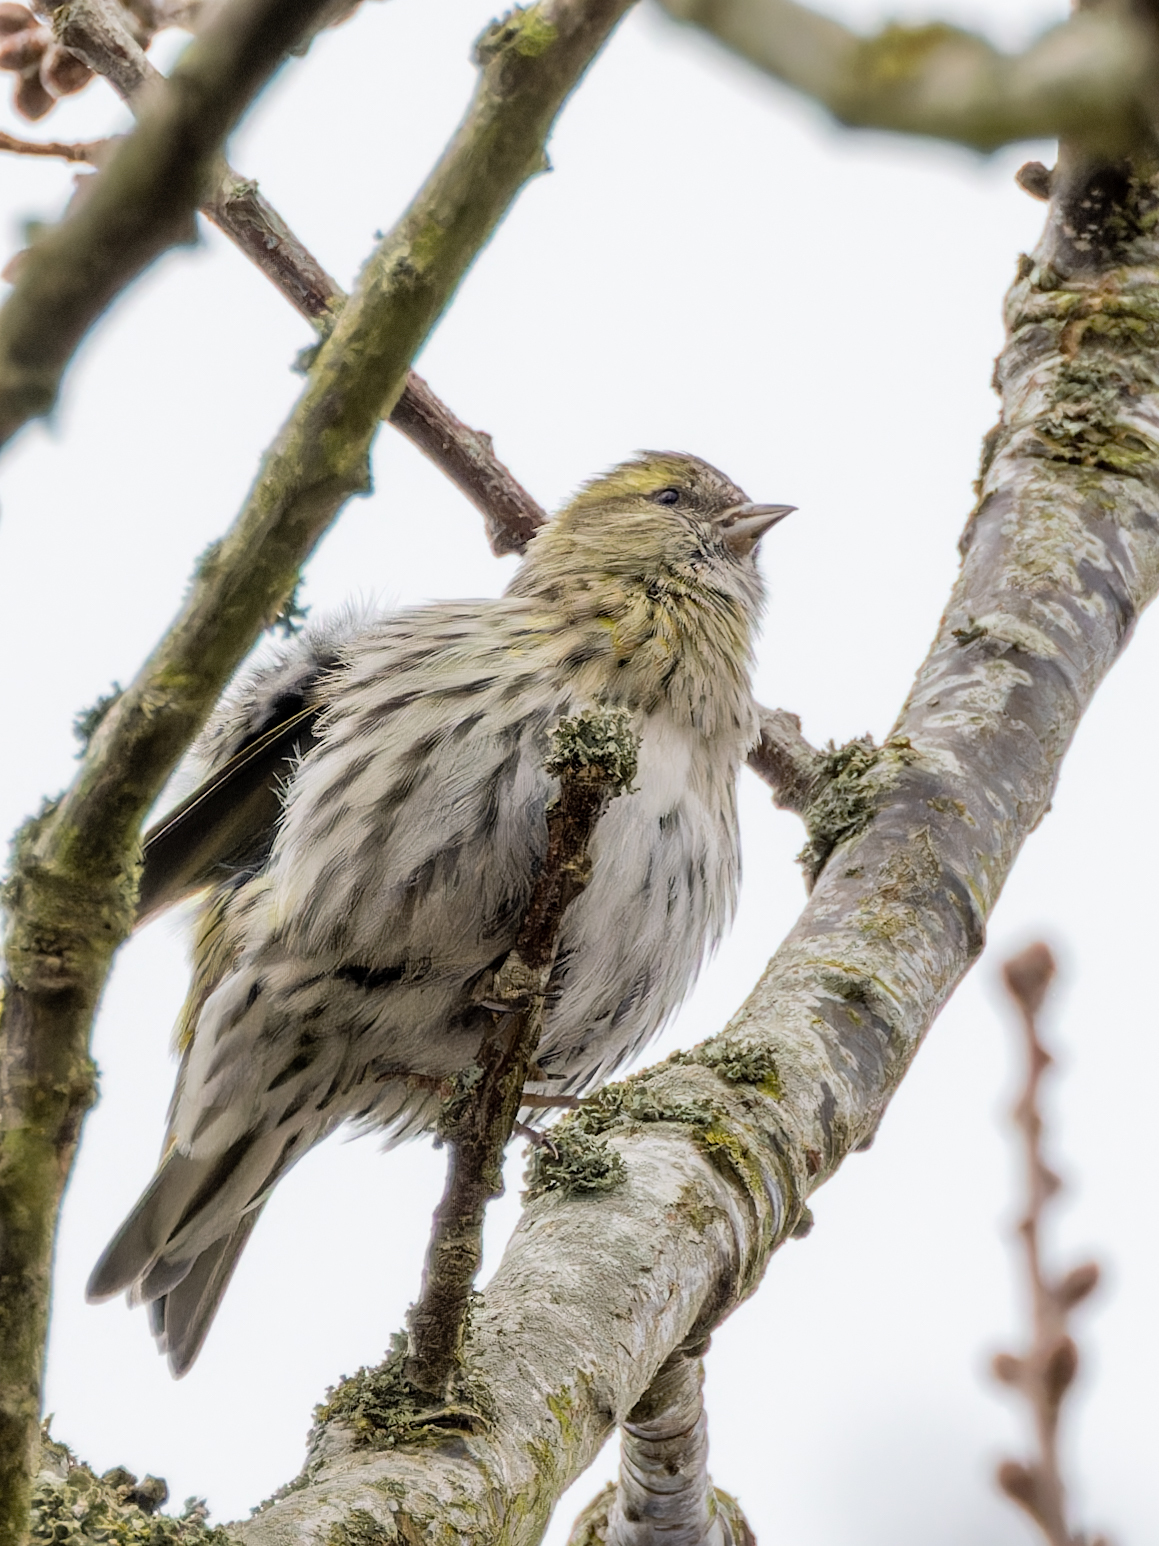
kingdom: Animalia
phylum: Chordata
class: Aves
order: Passeriformes
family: Fringillidae
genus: Spinus
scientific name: Spinus spinus
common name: Eurasian siskin
